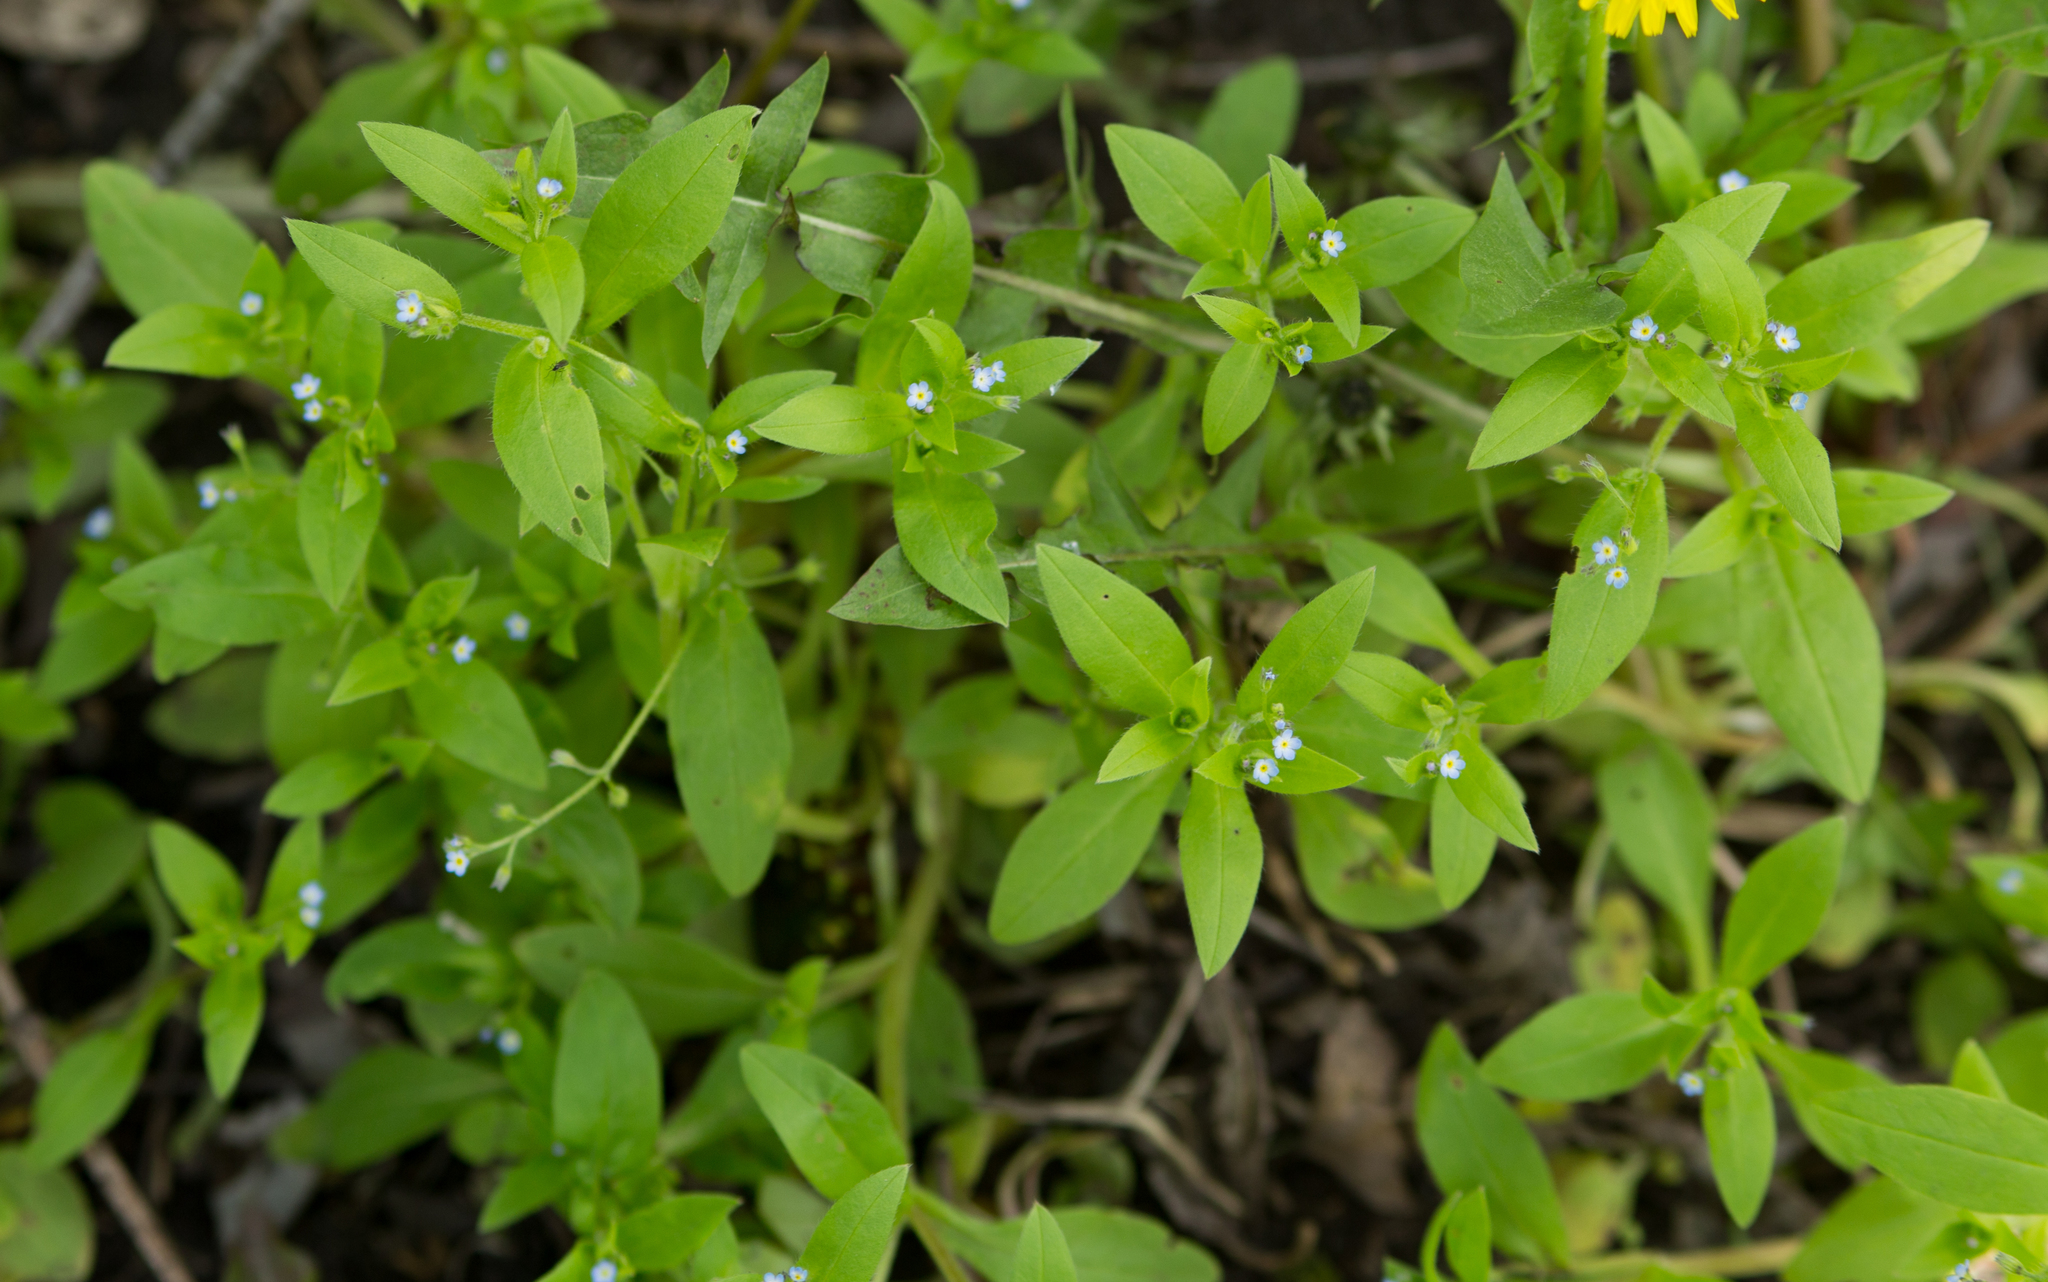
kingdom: Plantae
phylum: Tracheophyta
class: Magnoliopsida
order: Boraginales
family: Boraginaceae
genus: Myosotis
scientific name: Myosotis sparsiflora
